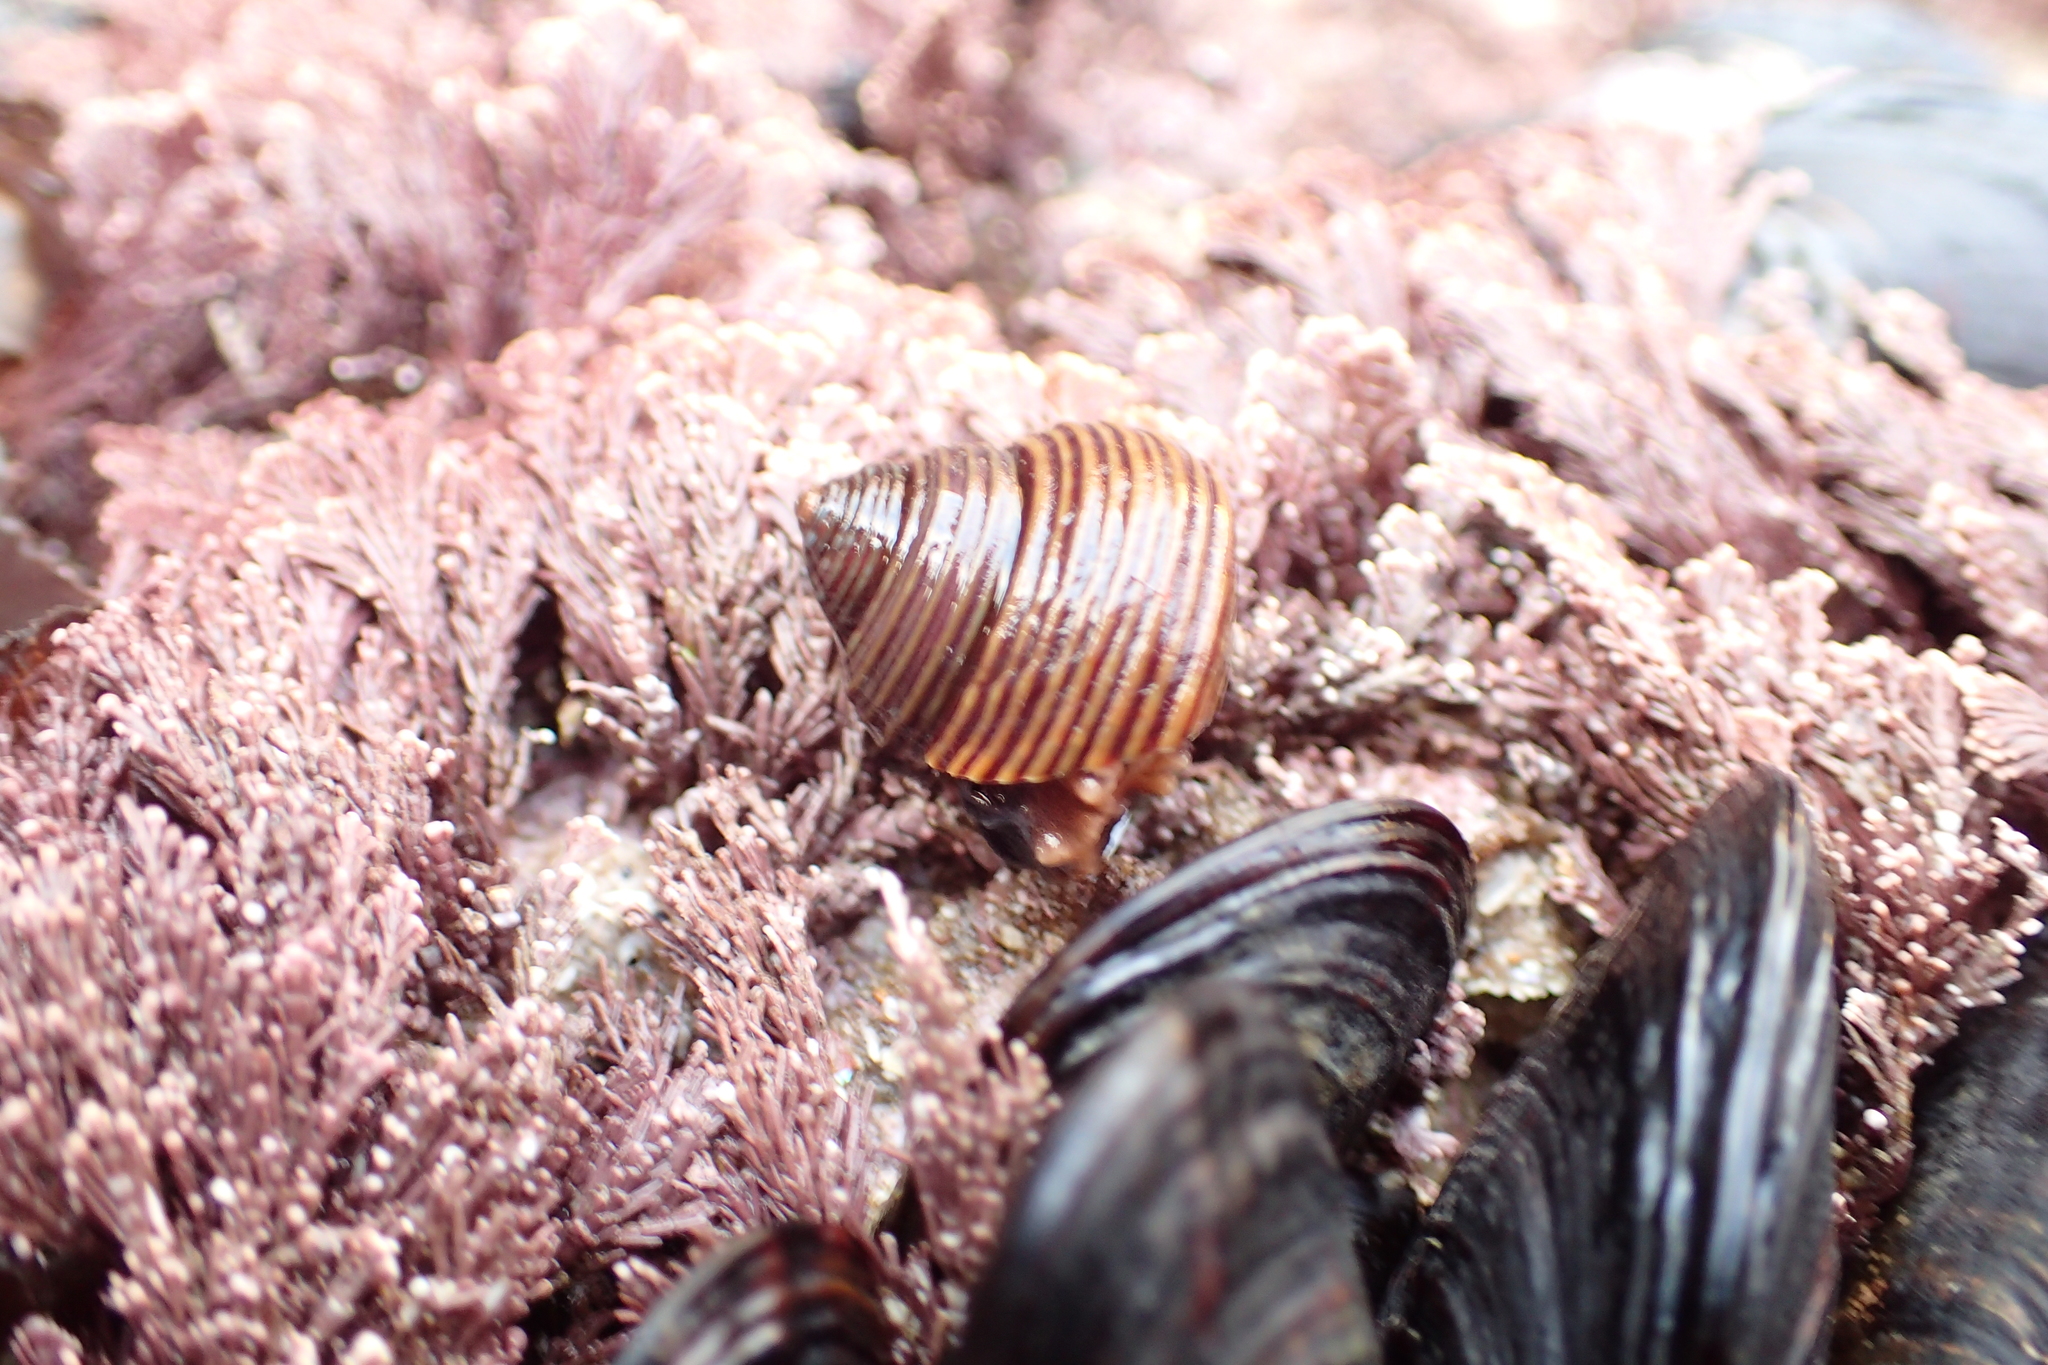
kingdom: Animalia
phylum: Mollusca
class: Gastropoda
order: Trochida
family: Calliostomatidae
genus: Calliostoma
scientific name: Calliostoma ligatum
